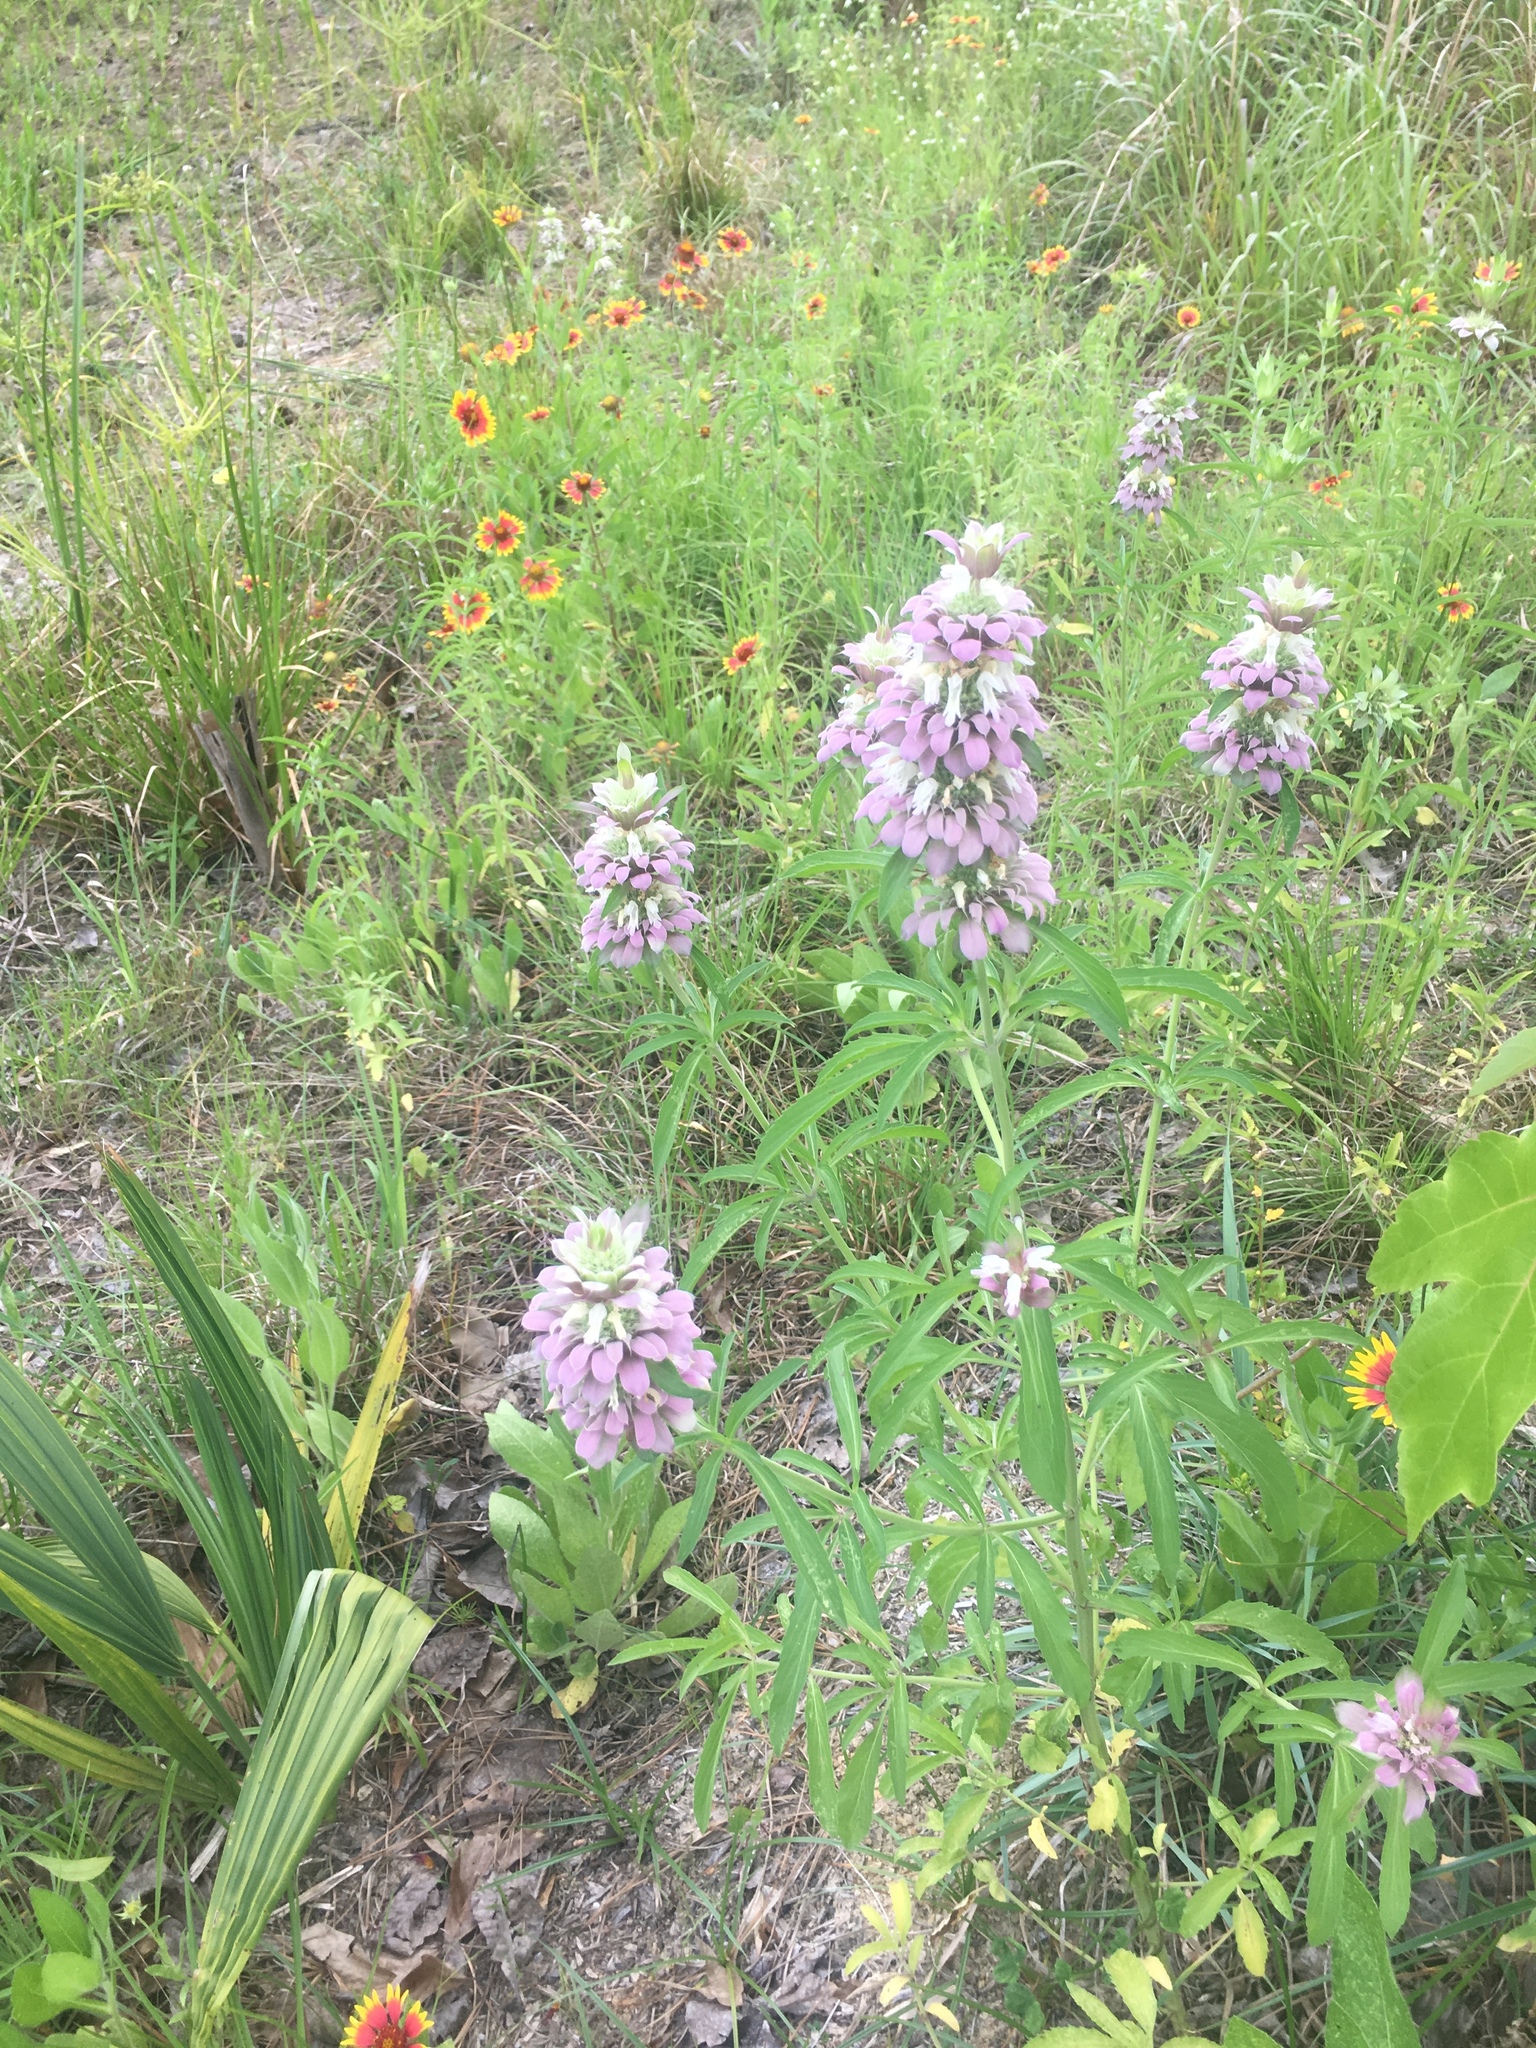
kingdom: Plantae
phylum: Tracheophyta
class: Magnoliopsida
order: Lamiales
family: Lamiaceae
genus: Monarda
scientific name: Monarda citriodora
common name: Lemon beebalm
